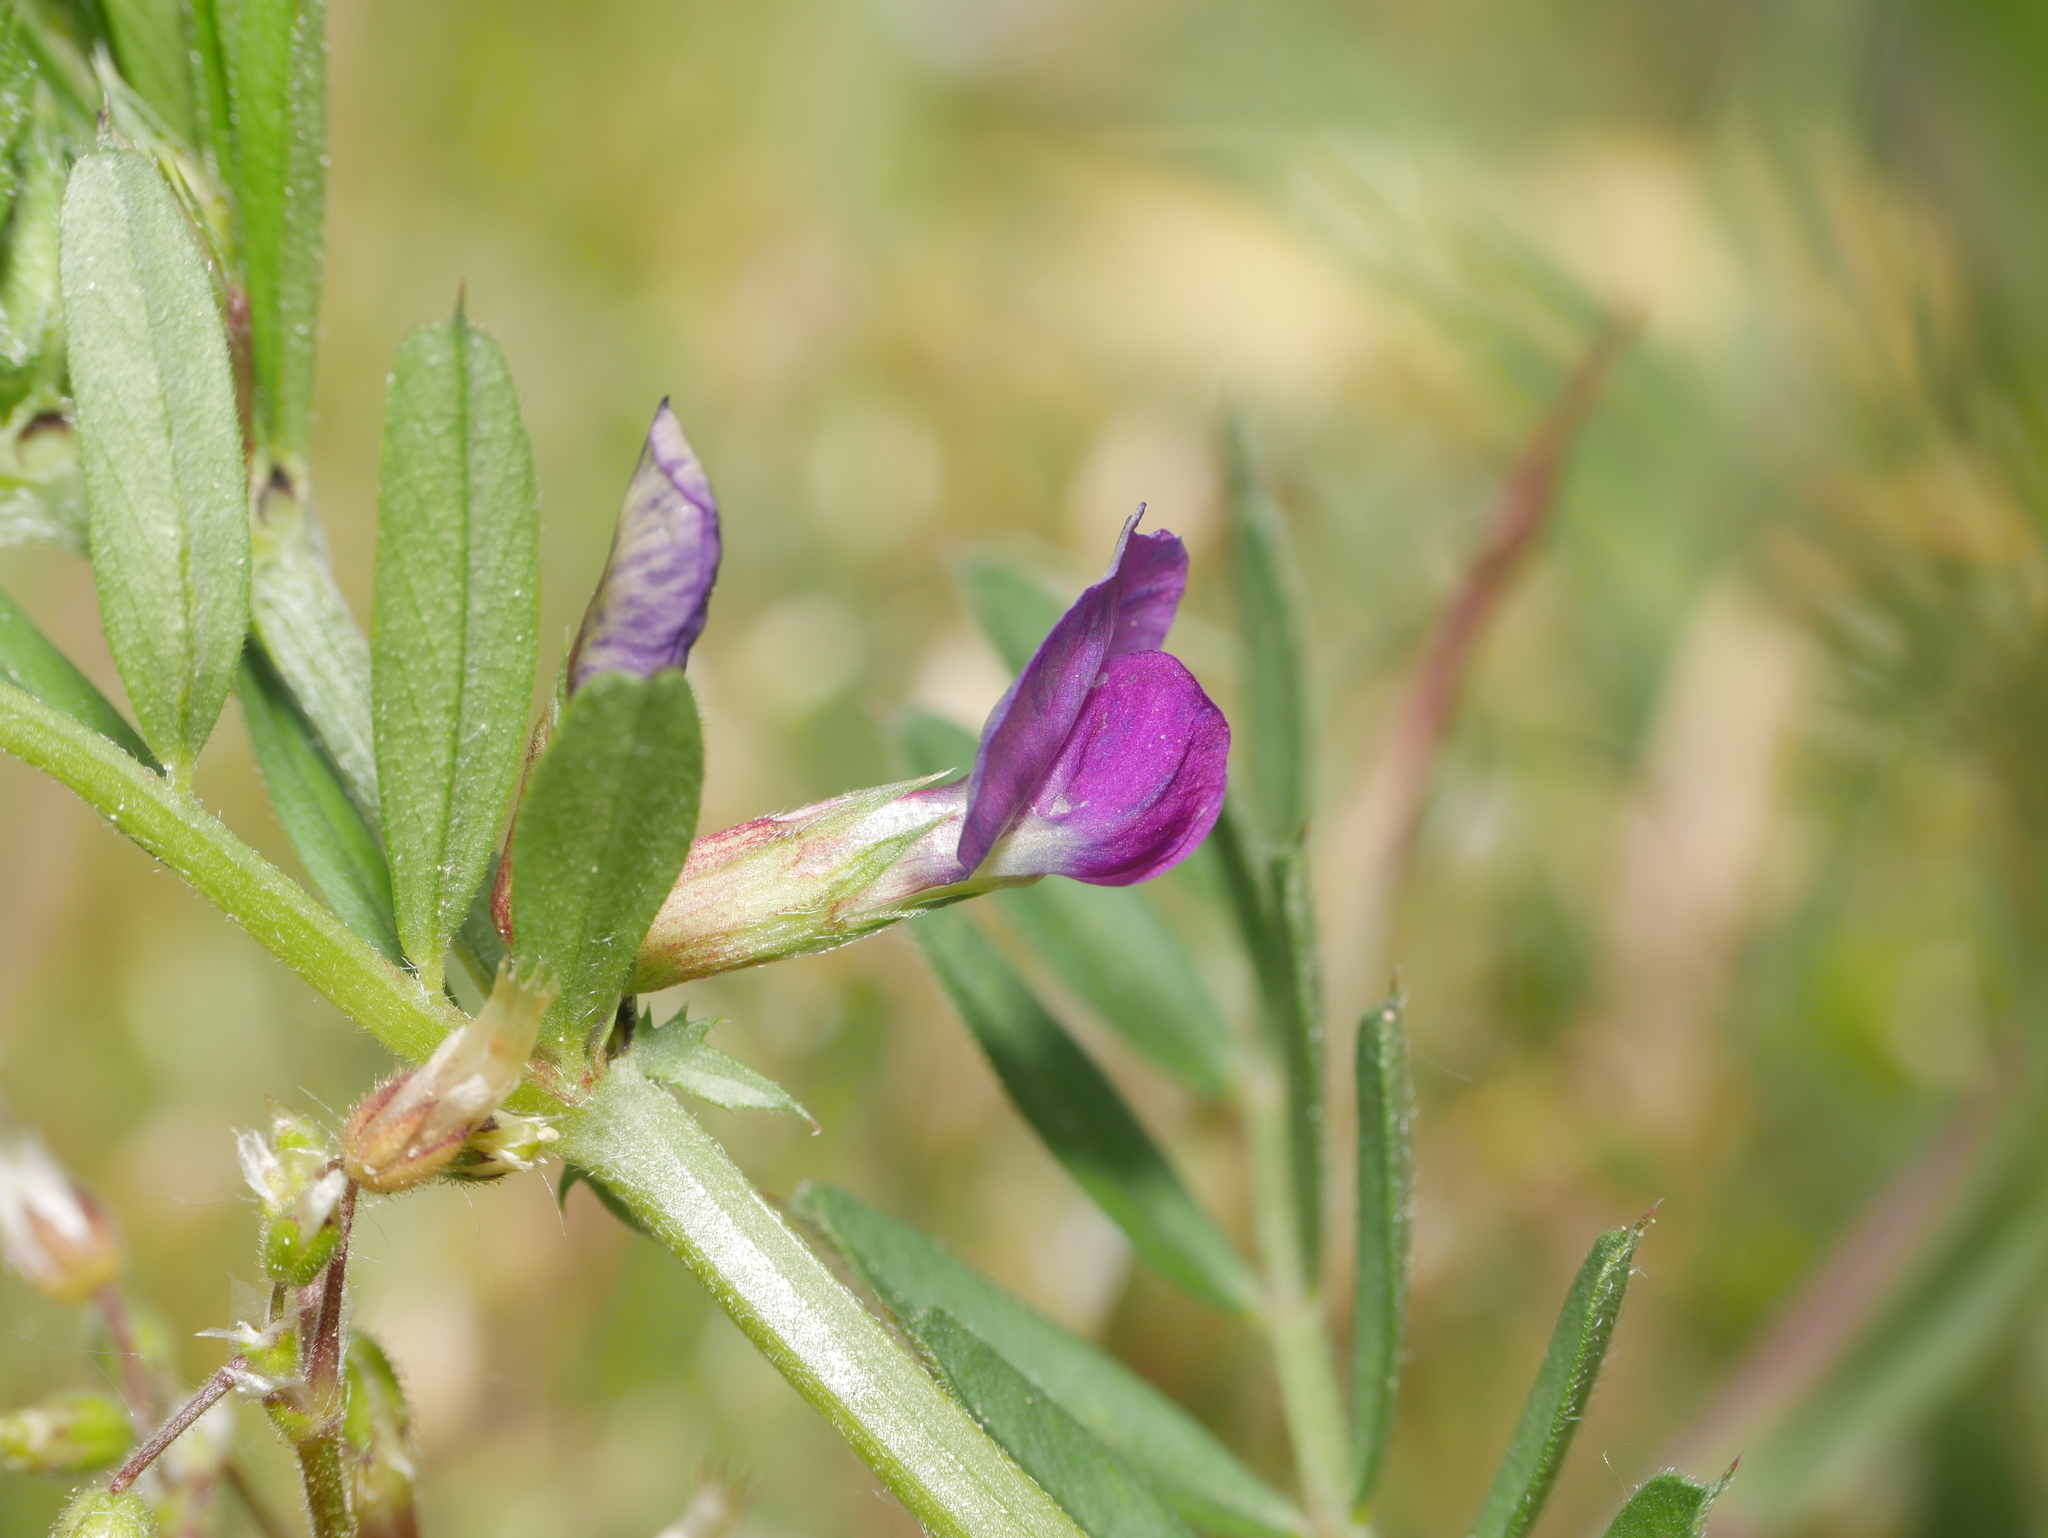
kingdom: Plantae
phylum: Tracheophyta
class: Magnoliopsida
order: Fabales
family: Fabaceae
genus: Vicia
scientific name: Vicia sativa
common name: Garden vetch
